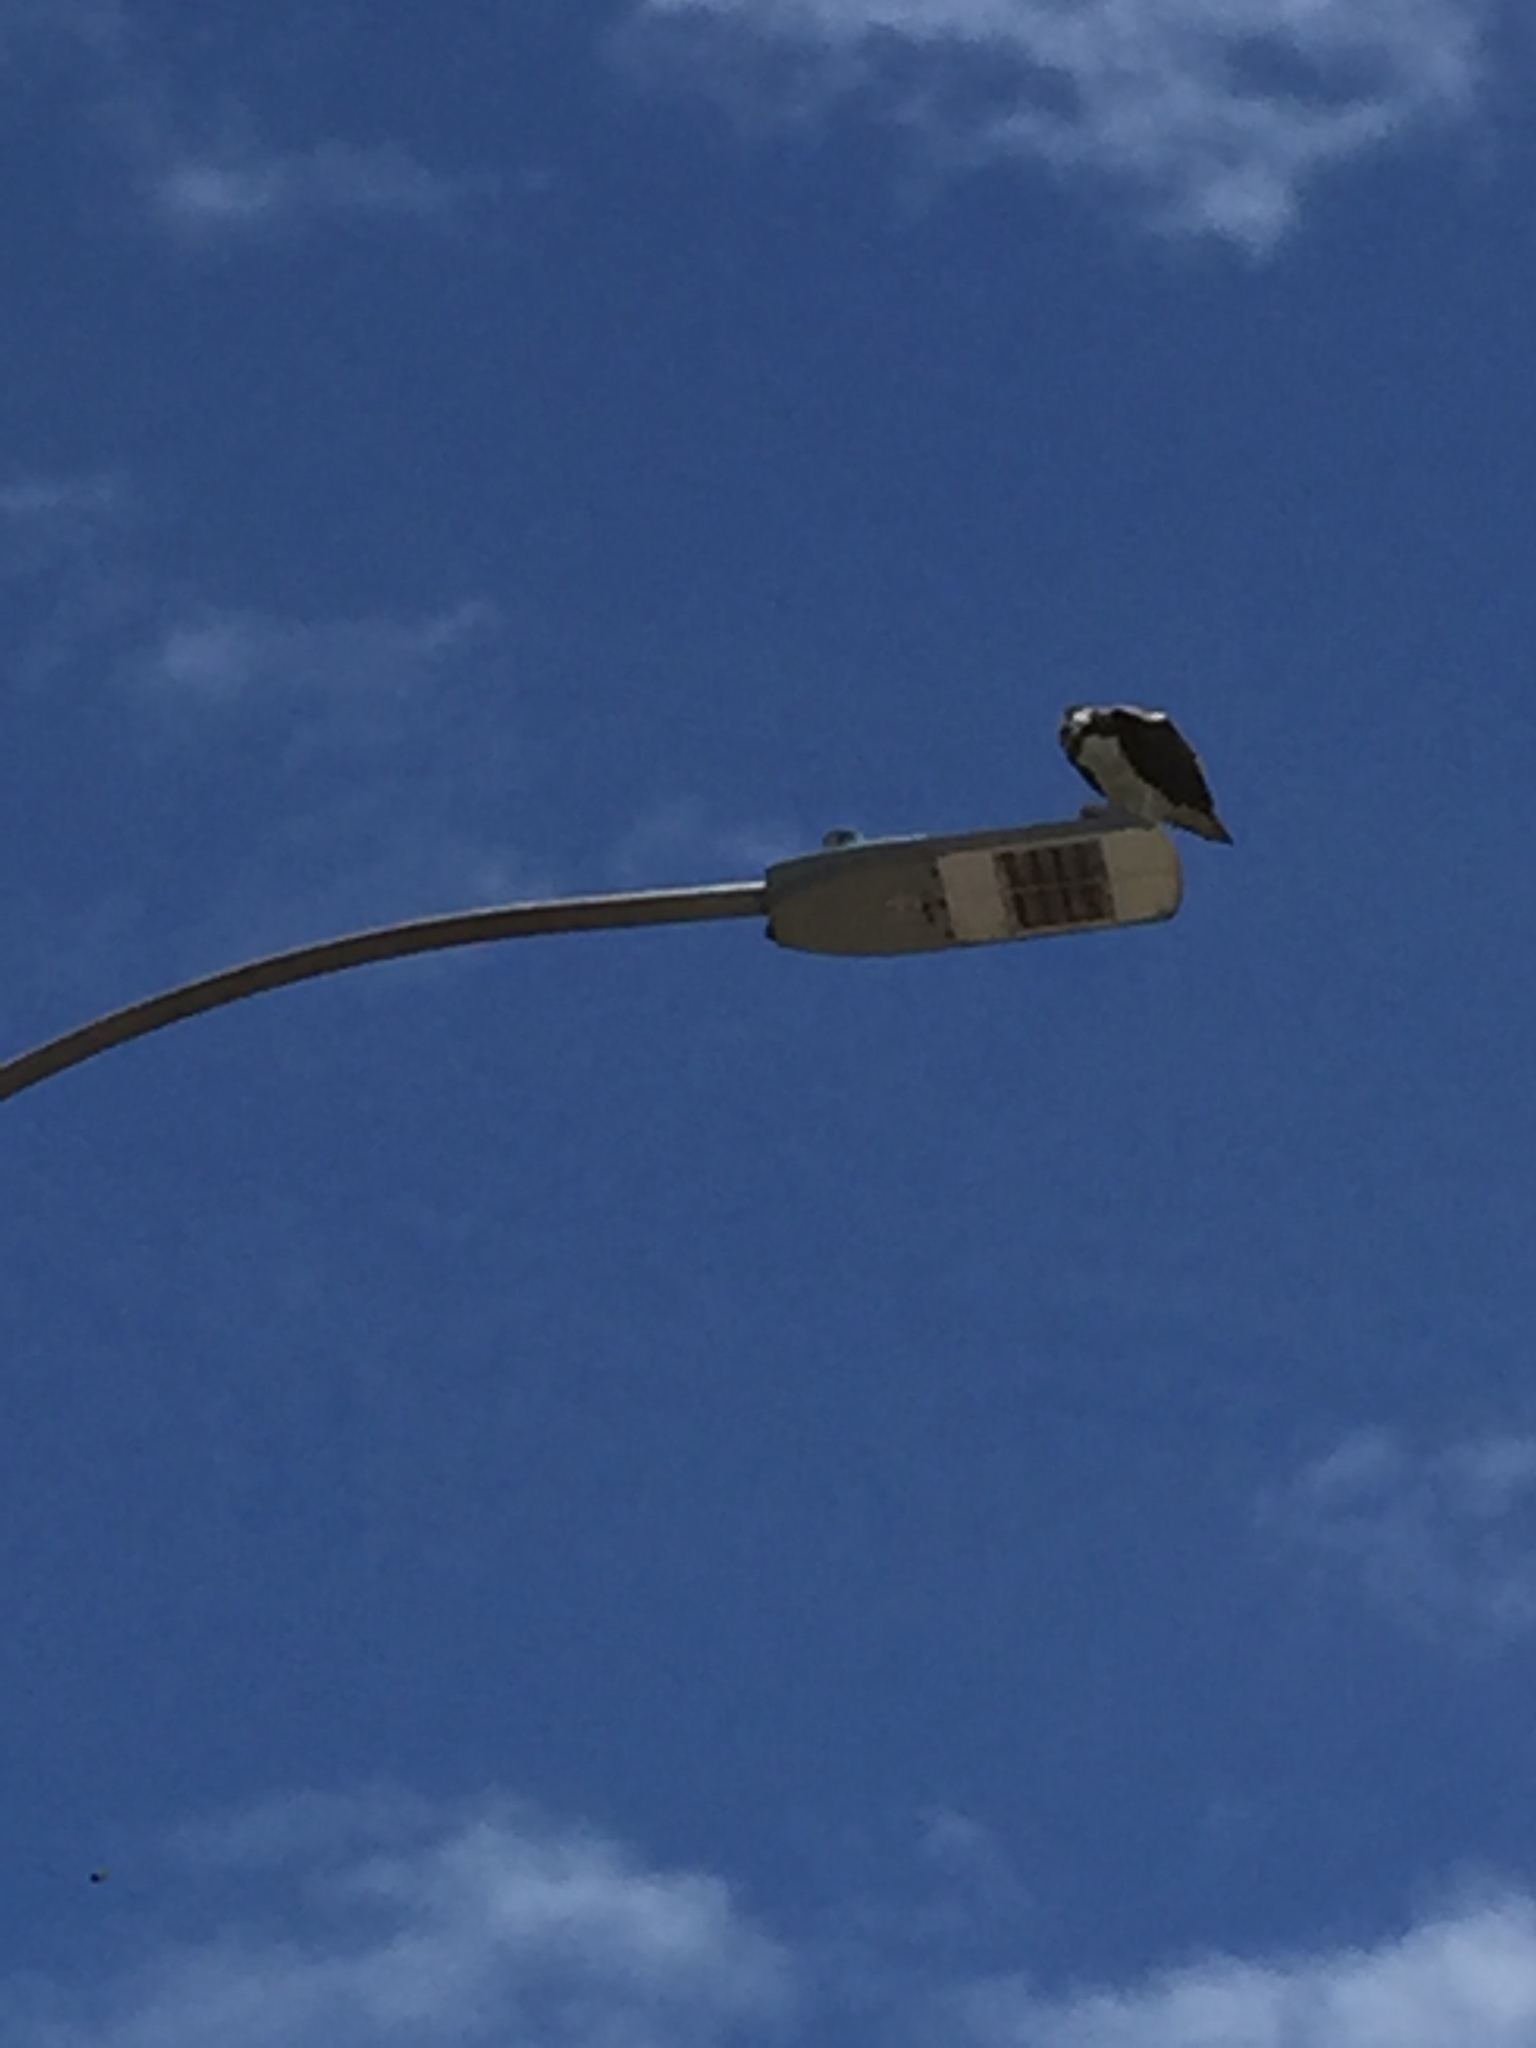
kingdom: Animalia
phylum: Chordata
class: Aves
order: Accipitriformes
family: Pandionidae
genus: Pandion
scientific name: Pandion haliaetus
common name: Osprey
